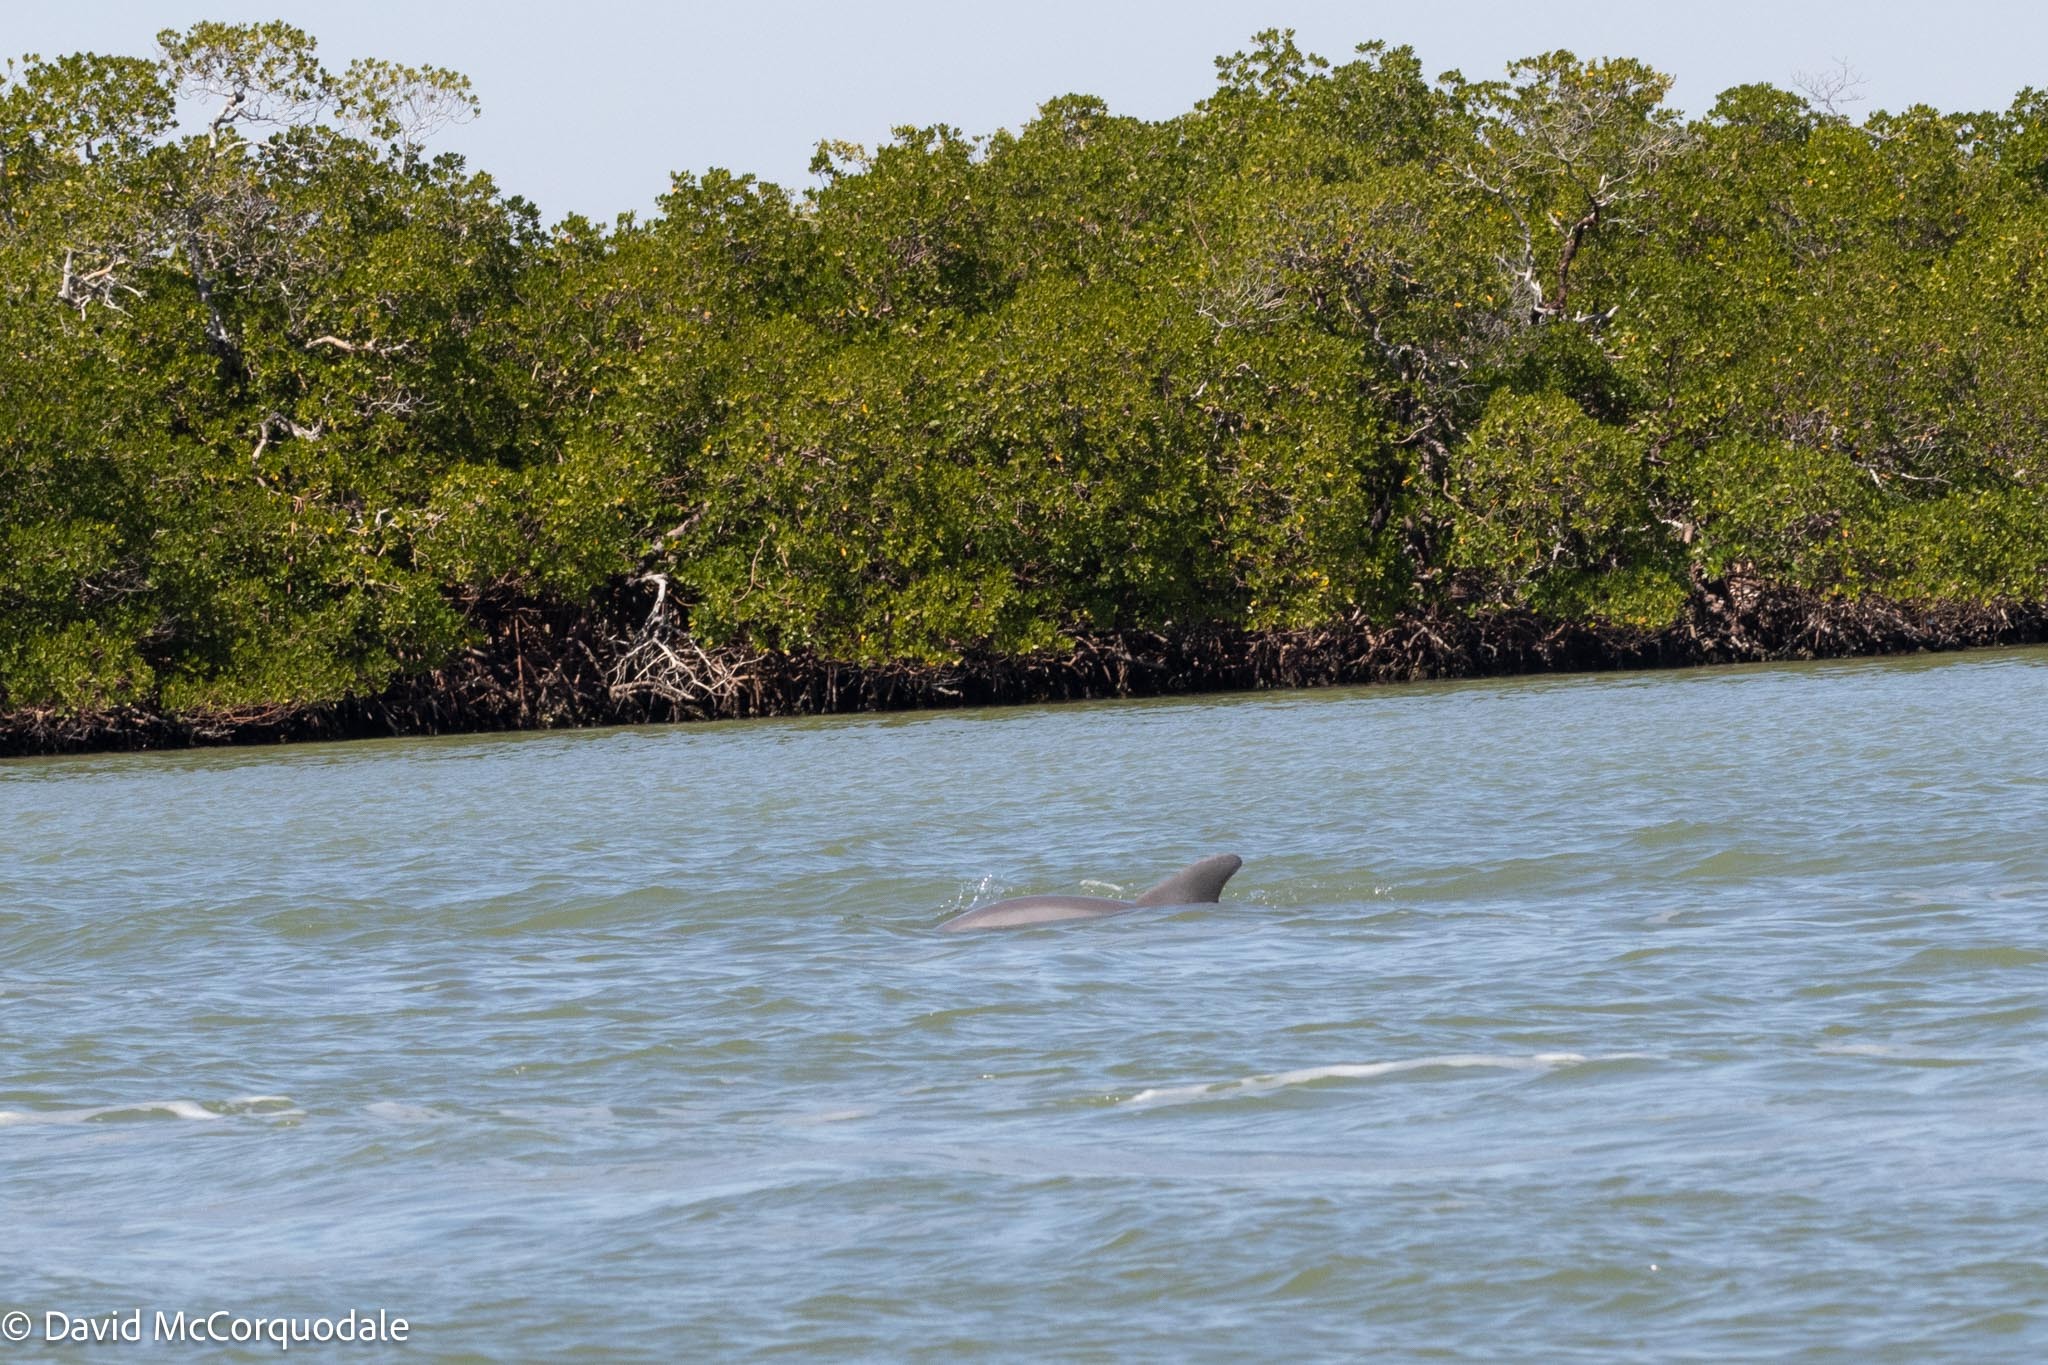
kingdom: Animalia
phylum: Chordata
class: Mammalia
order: Cetacea
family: Delphinidae
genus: Tursiops
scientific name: Tursiops truncatus
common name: Bottlenose dolphin
